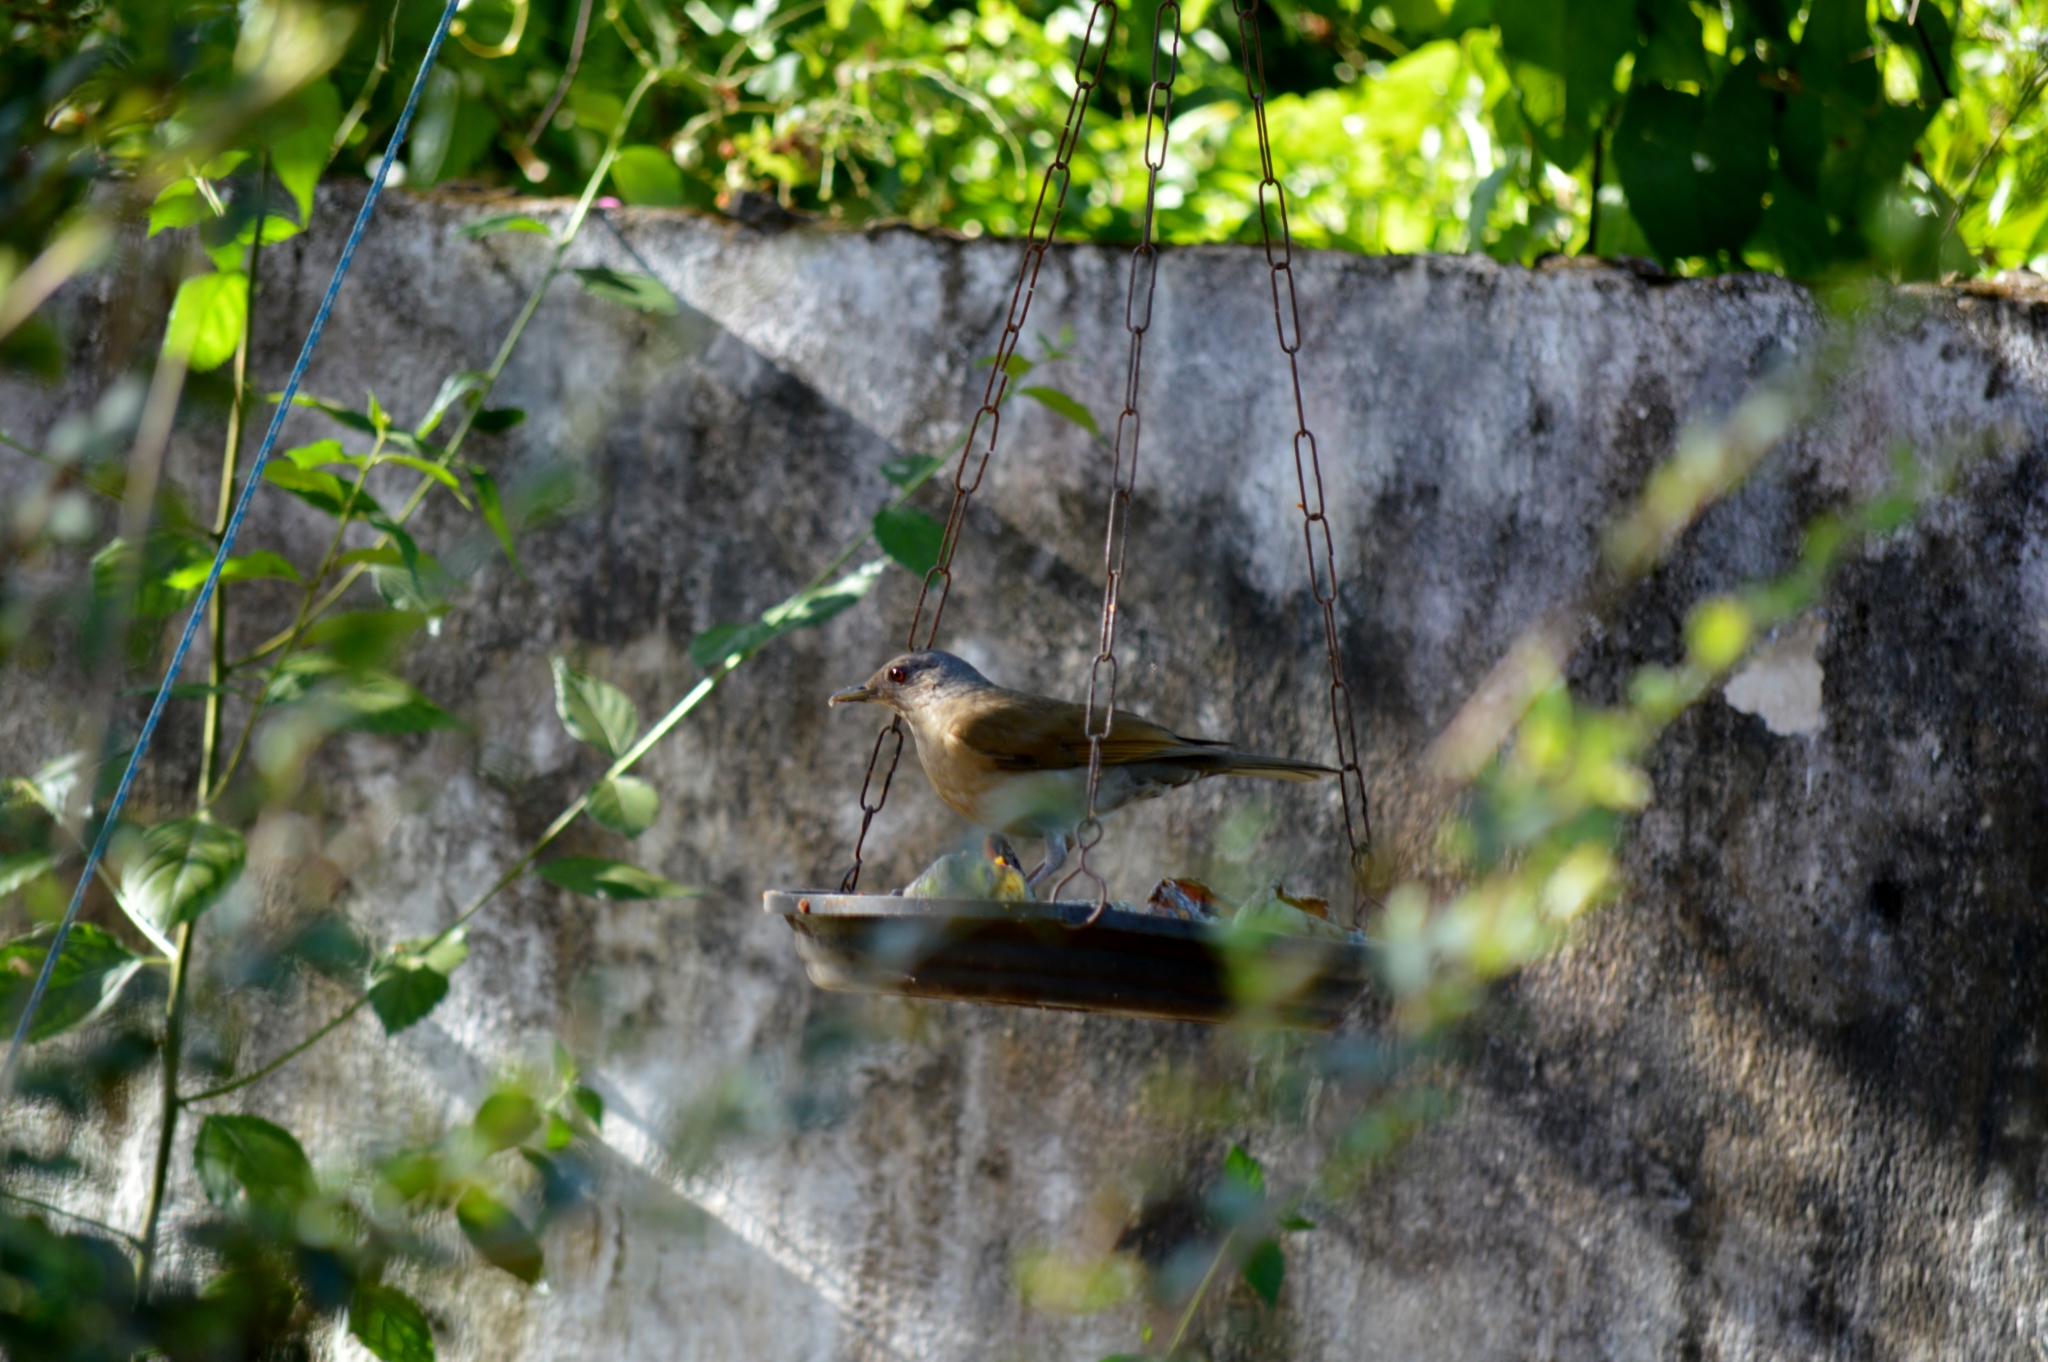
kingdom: Animalia
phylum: Chordata
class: Aves
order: Passeriformes
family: Turdidae
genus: Turdus
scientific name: Turdus leucomelas
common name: Pale-breasted thrush
